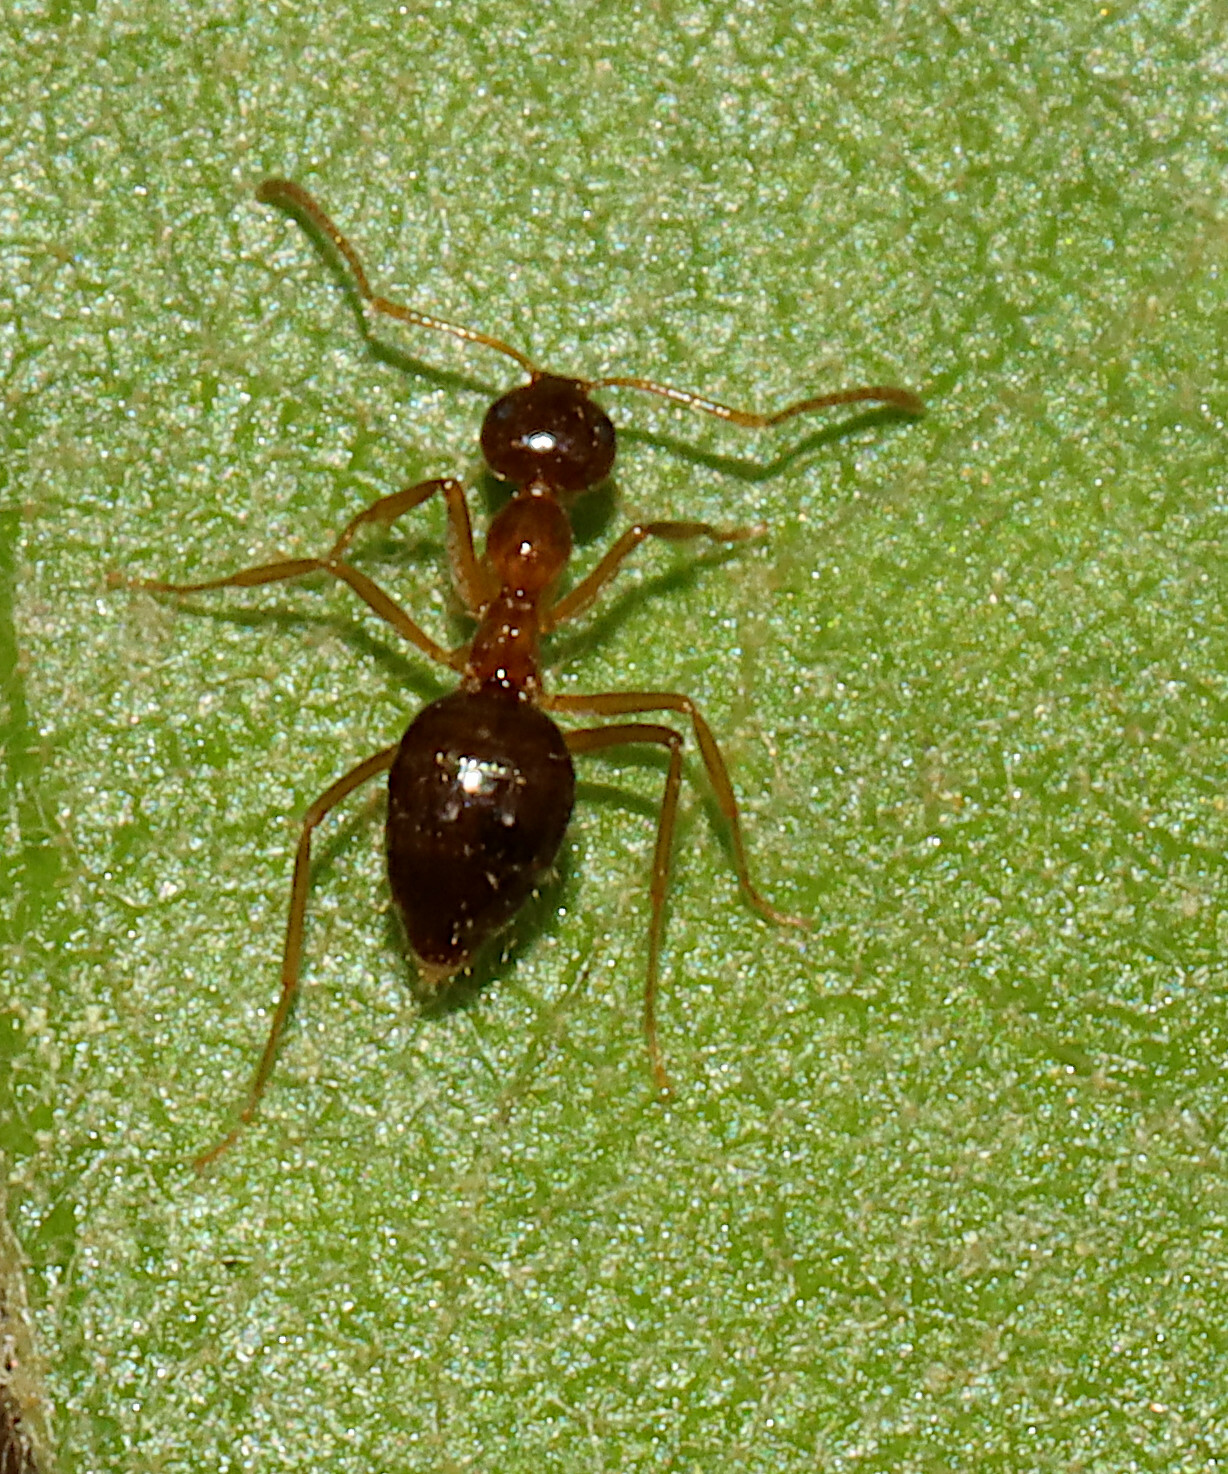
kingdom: Animalia
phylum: Arthropoda
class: Insecta
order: Hymenoptera
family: Formicidae
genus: Prenolepis
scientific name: Prenolepis imparis
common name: Small honey ant
